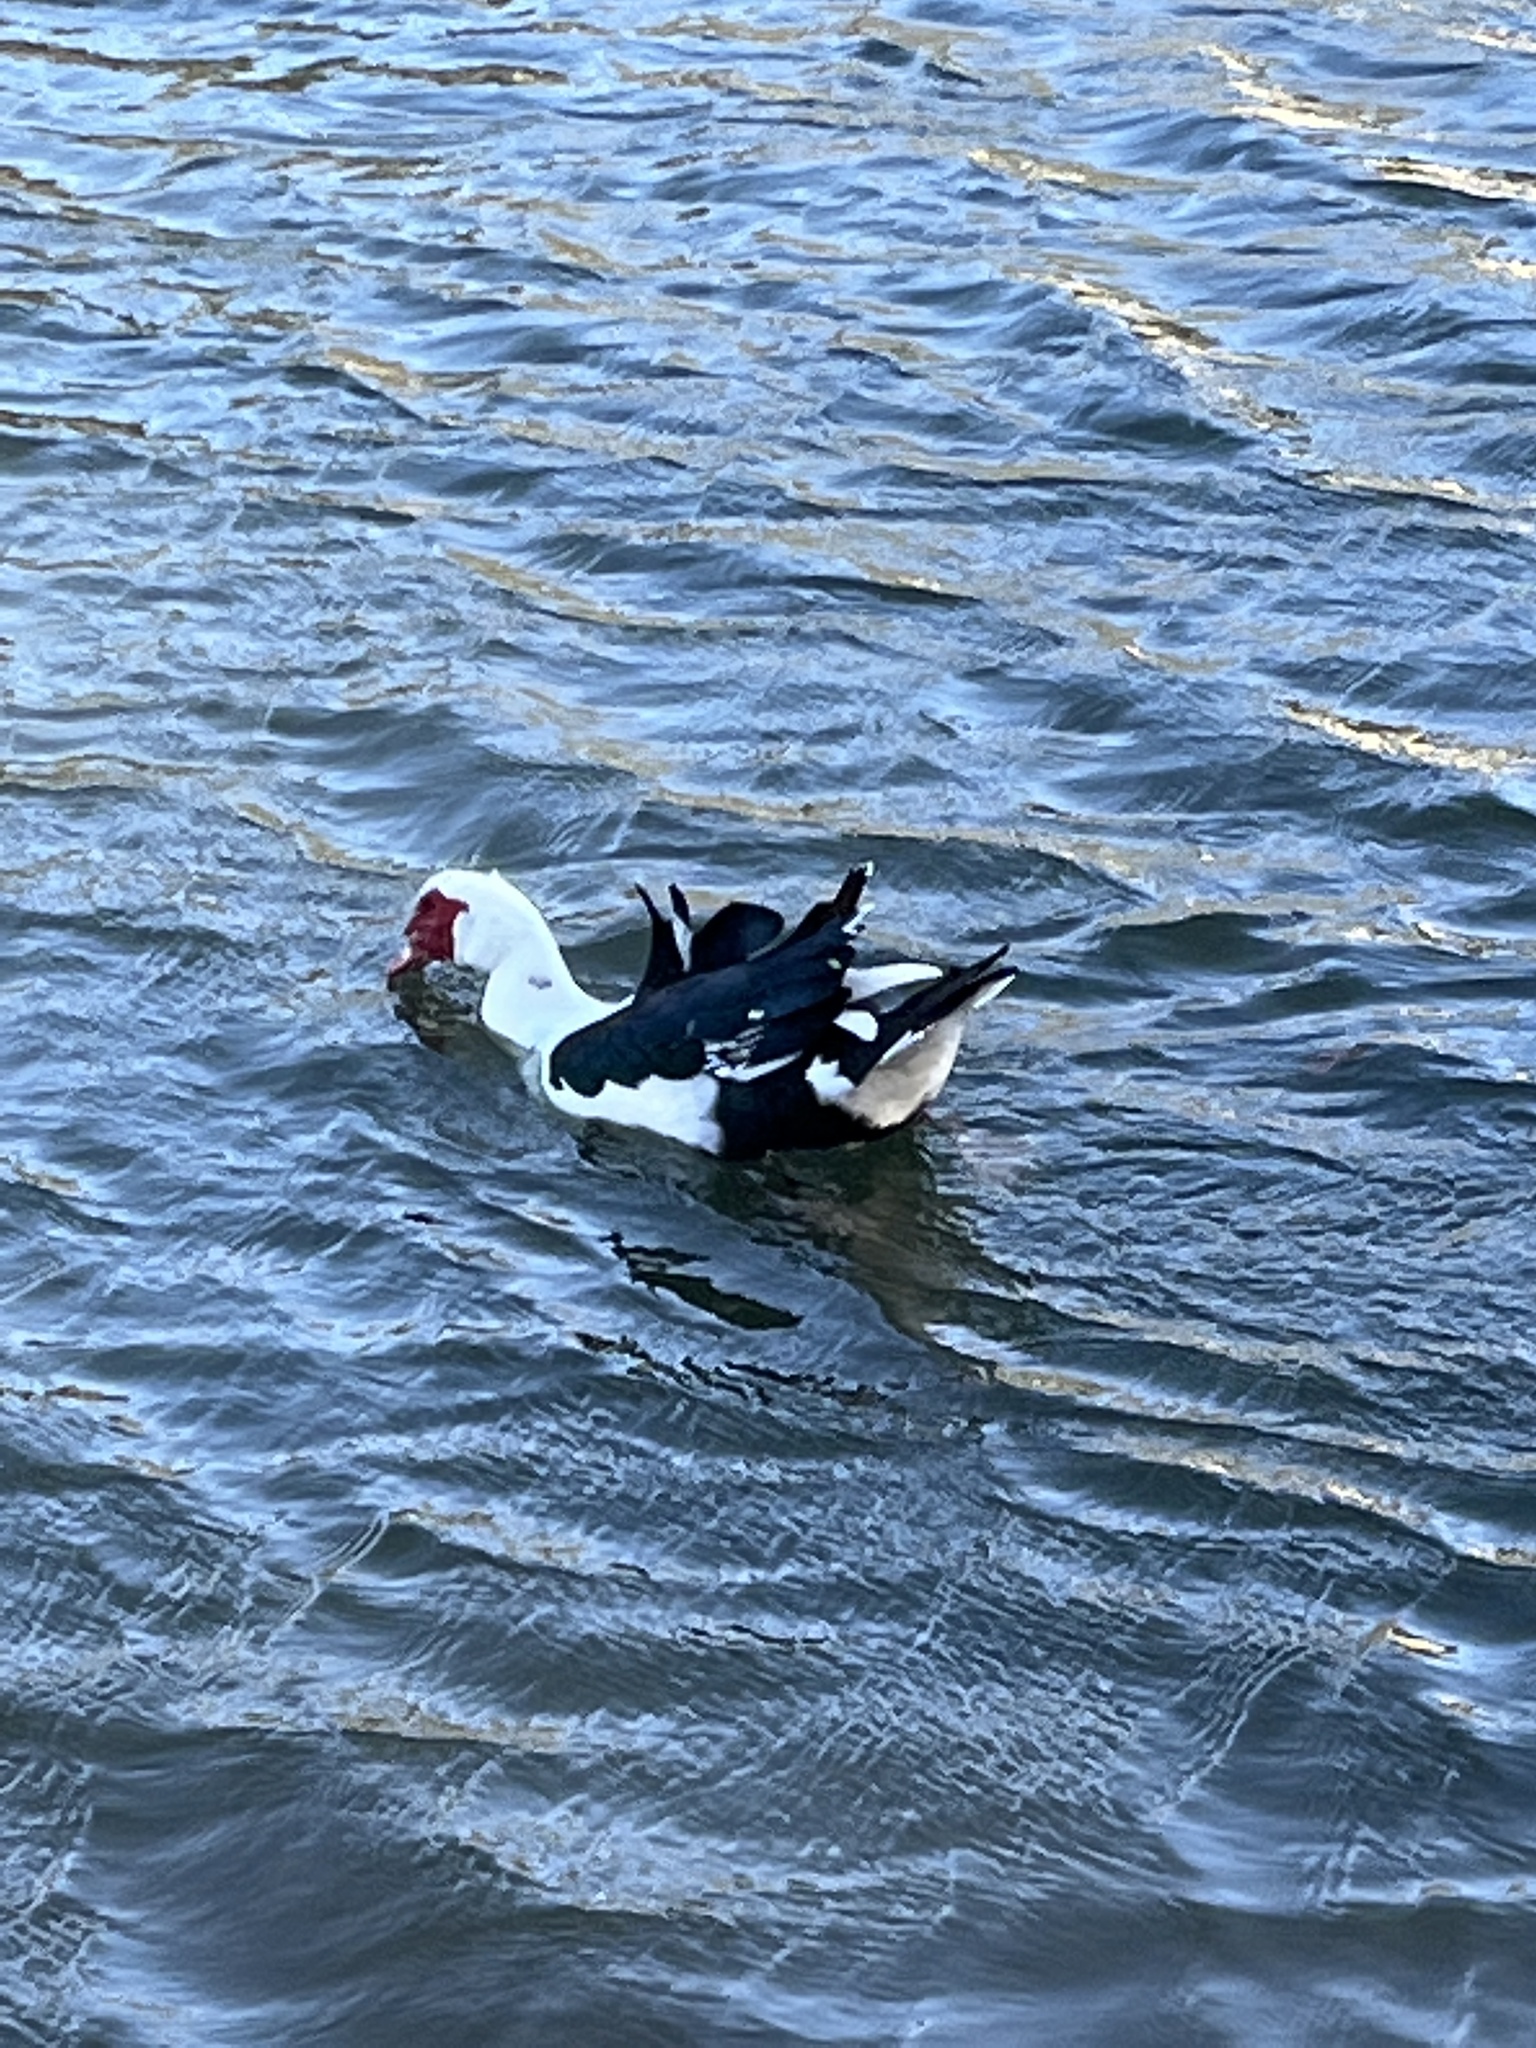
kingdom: Animalia
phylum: Chordata
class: Aves
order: Anseriformes
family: Anatidae
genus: Cairina
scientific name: Cairina moschata
